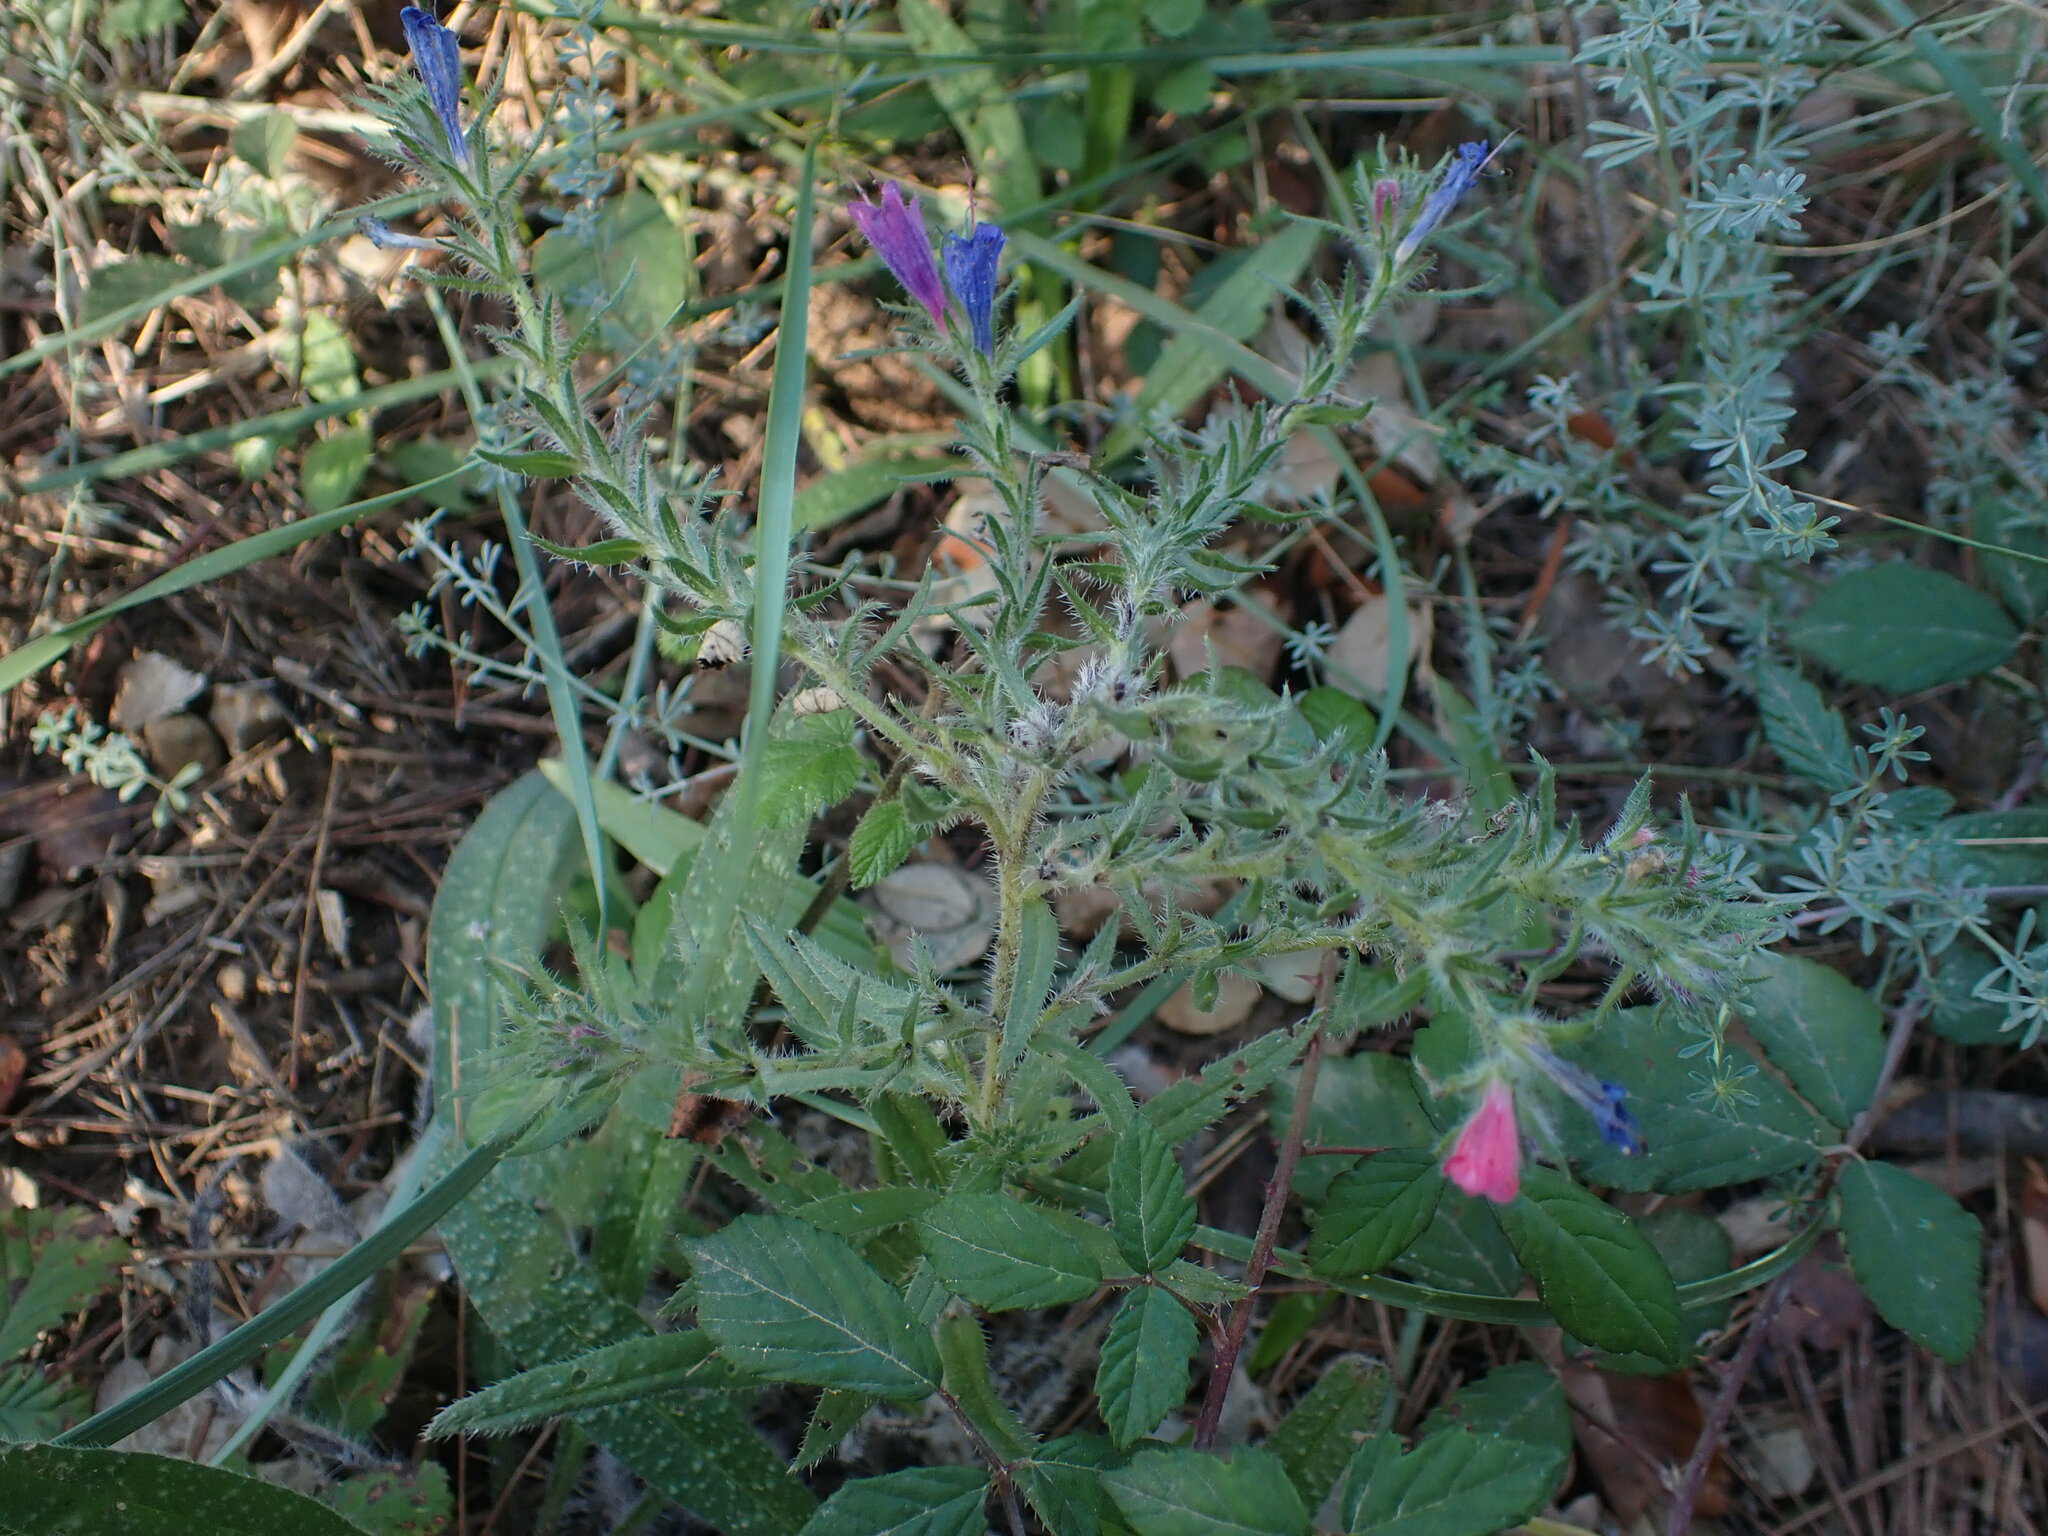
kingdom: Plantae
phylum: Tracheophyta
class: Magnoliopsida
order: Boraginales
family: Boraginaceae
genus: Echium
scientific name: Echium vulgare
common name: Common viper's bugloss
